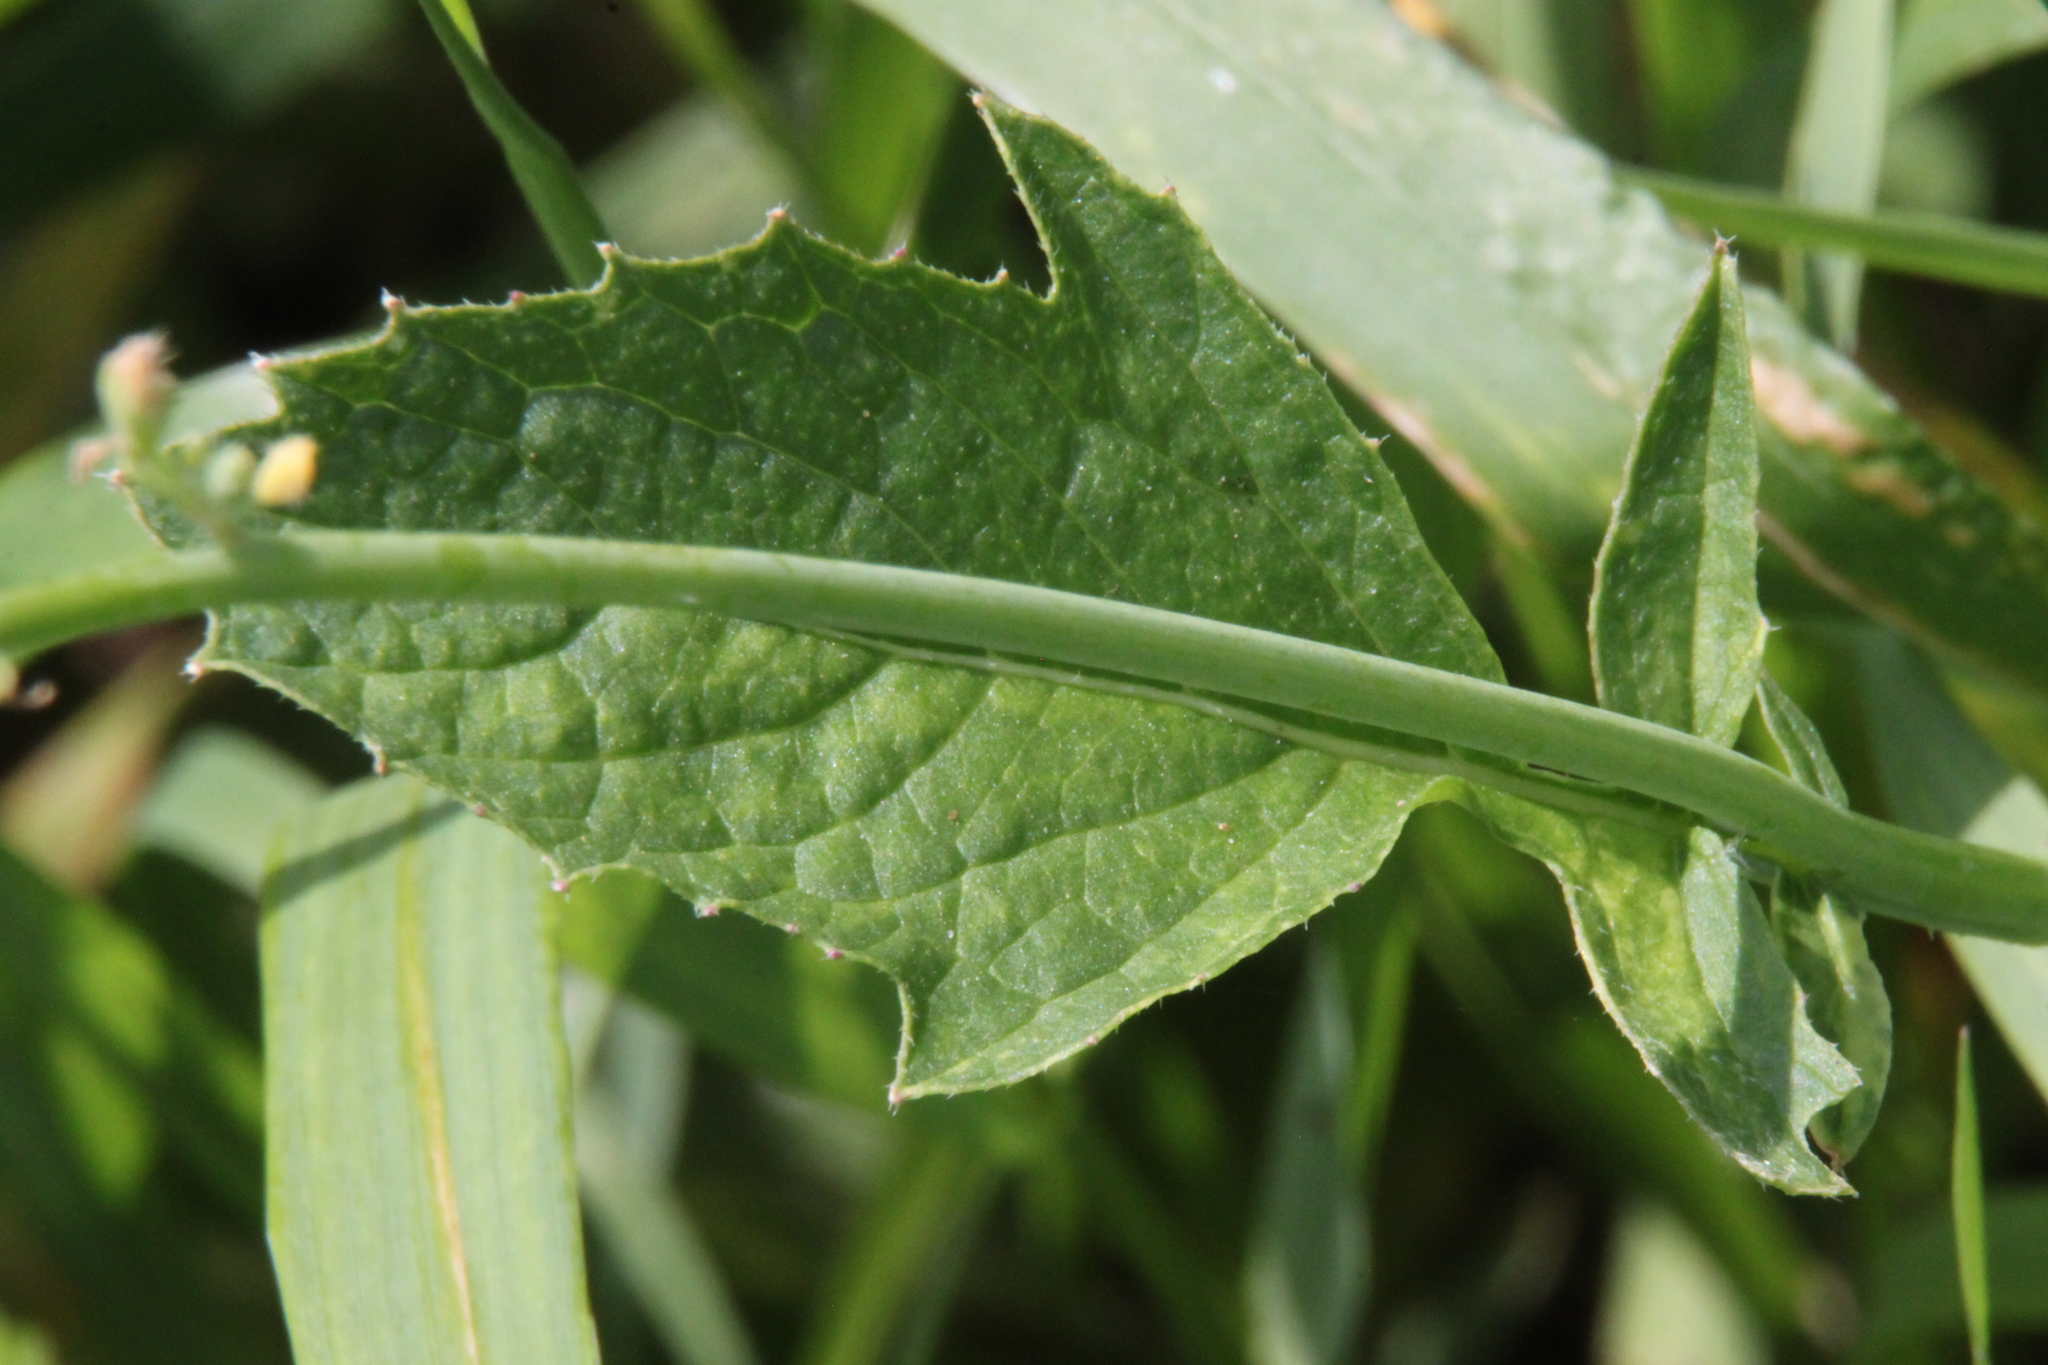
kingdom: Plantae
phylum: Tracheophyta
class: Magnoliopsida
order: Brassicales
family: Brassicaceae
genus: Raphanus
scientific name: Raphanus raphanistrum
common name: Wild radish
